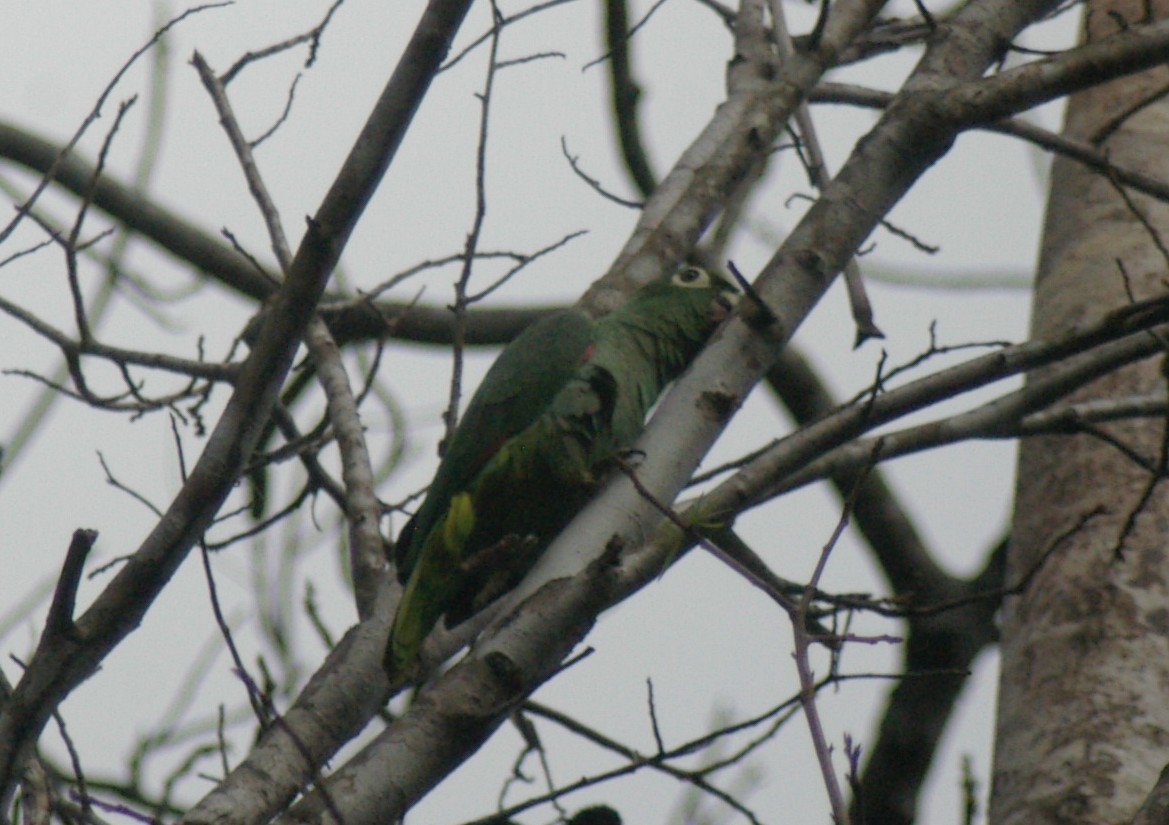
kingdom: Animalia
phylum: Chordata
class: Aves
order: Psittaciformes
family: Psittacidae
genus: Amazona
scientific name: Amazona farinosa
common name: Mealy parrot
